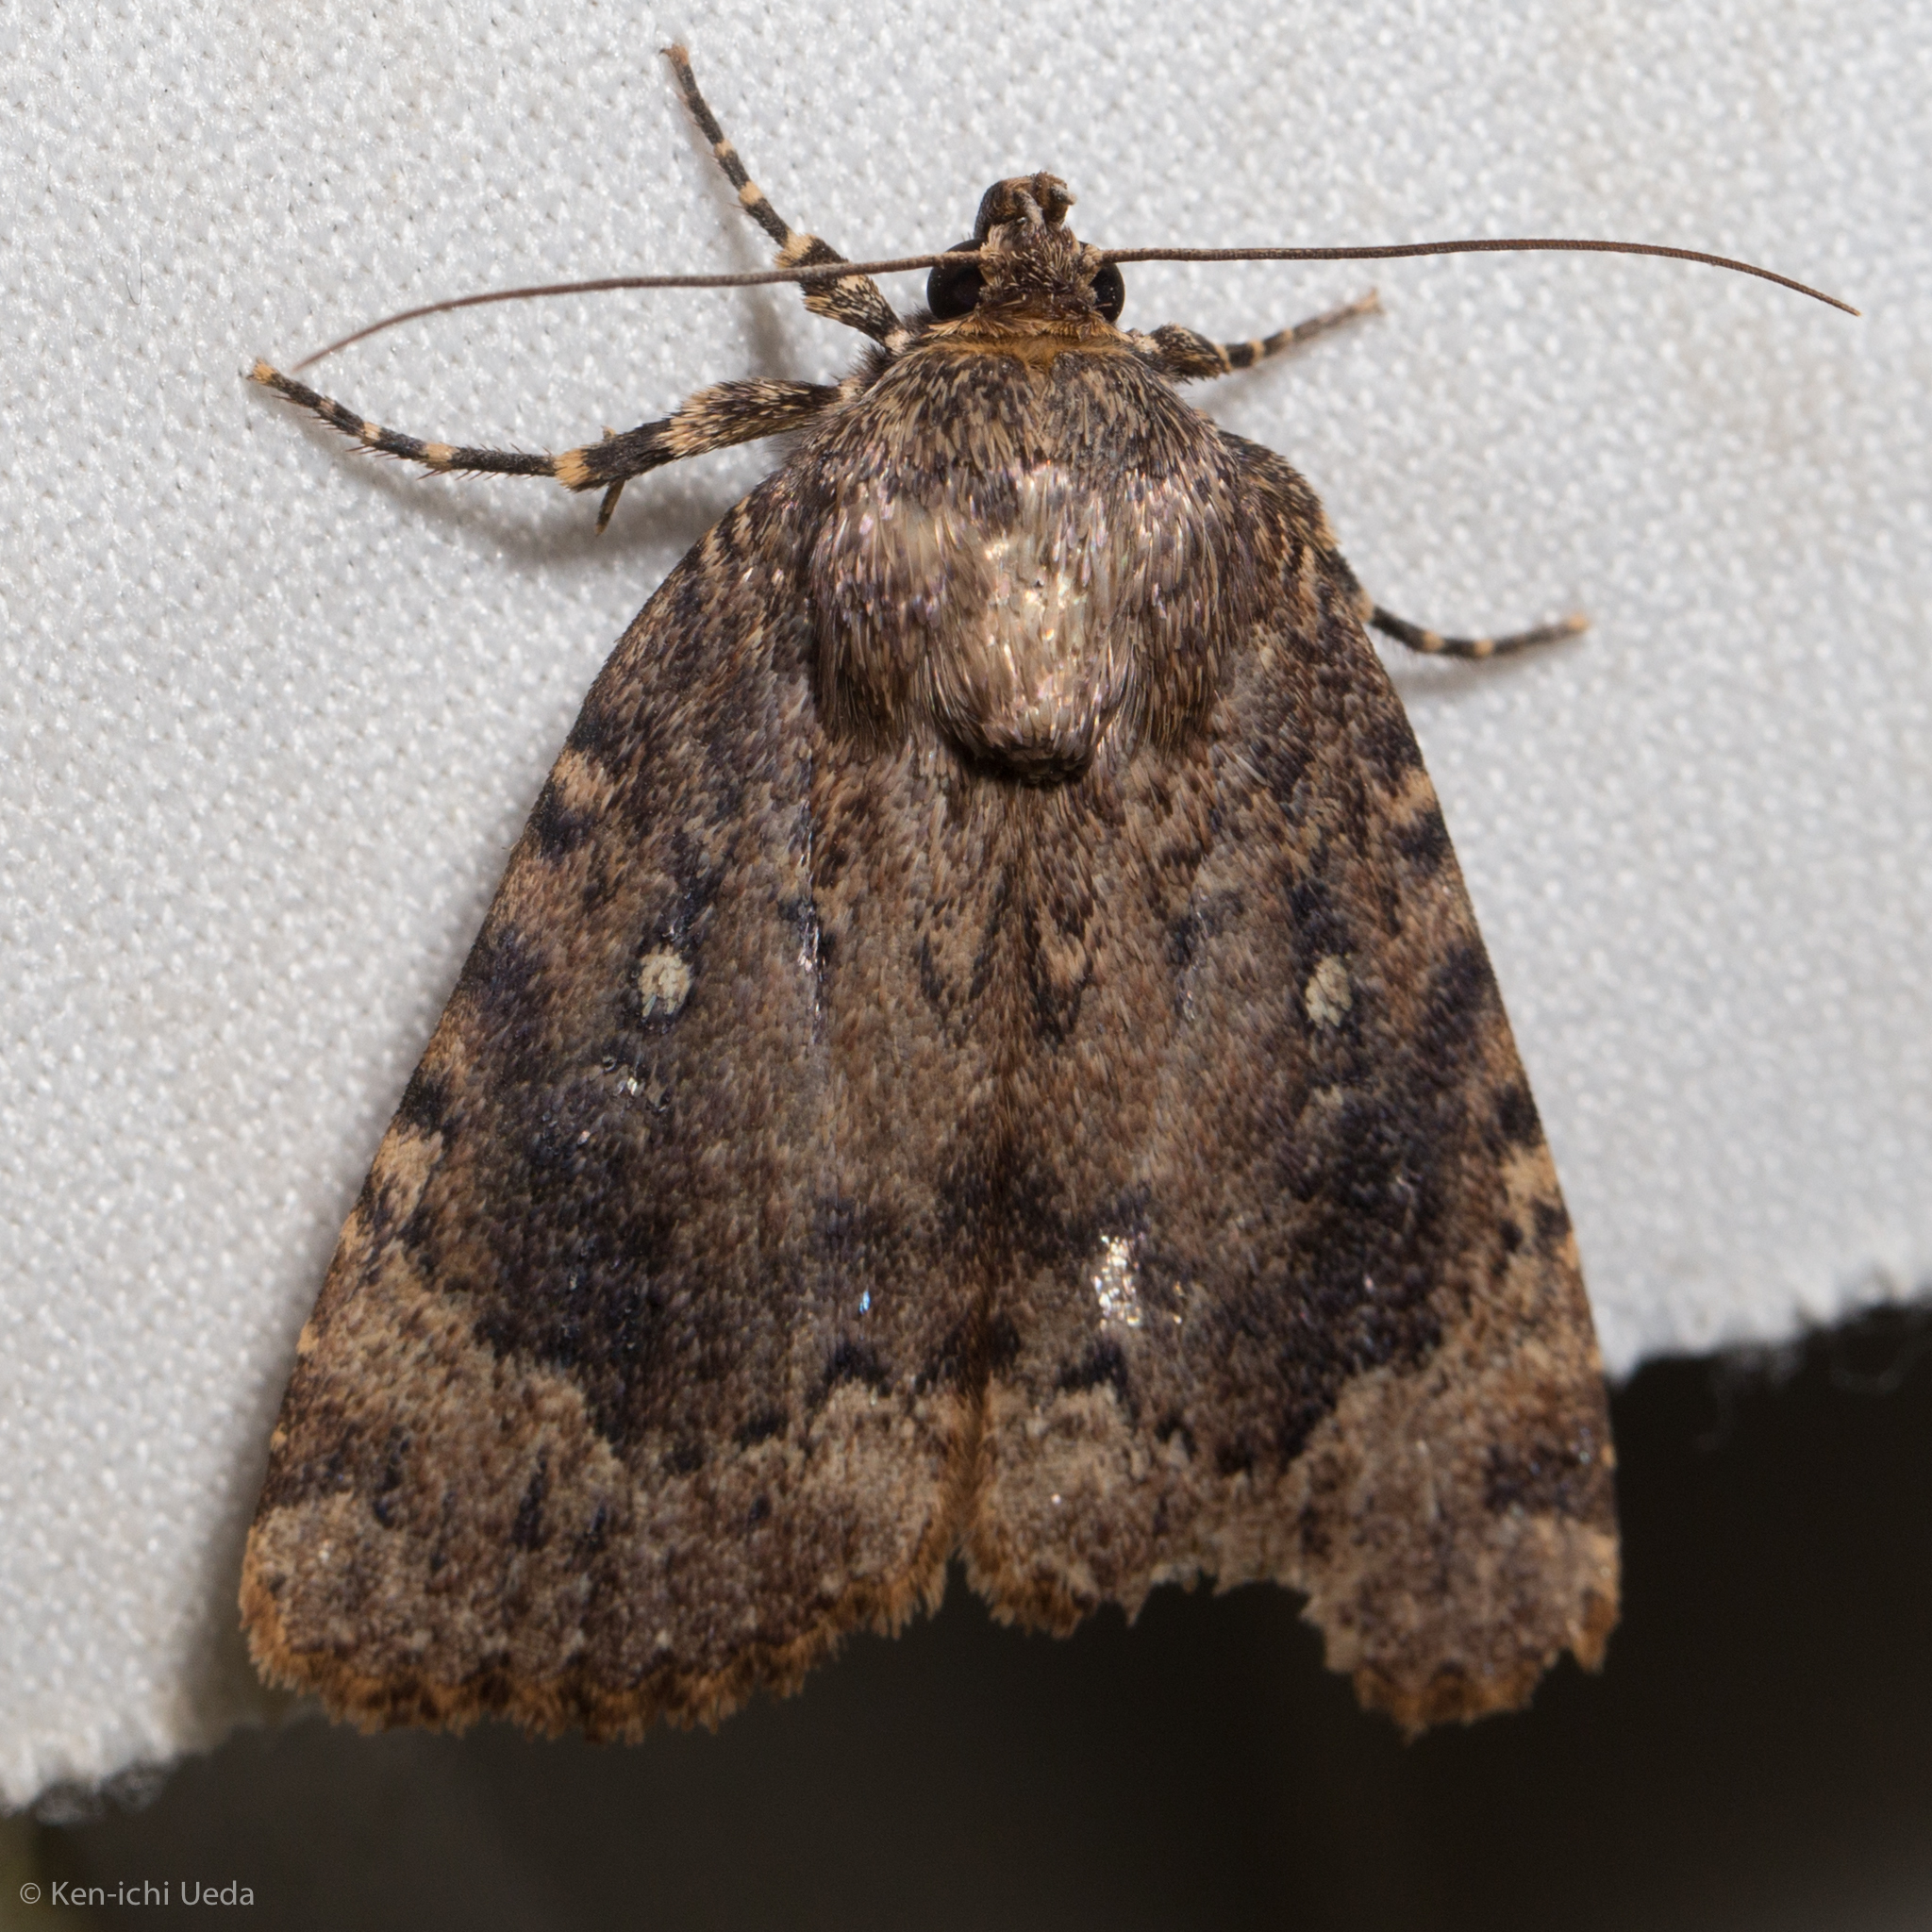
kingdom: Animalia
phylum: Arthropoda
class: Insecta
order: Lepidoptera
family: Noctuidae
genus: Amphipyra
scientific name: Amphipyra pyramidoides
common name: American copper underwing
